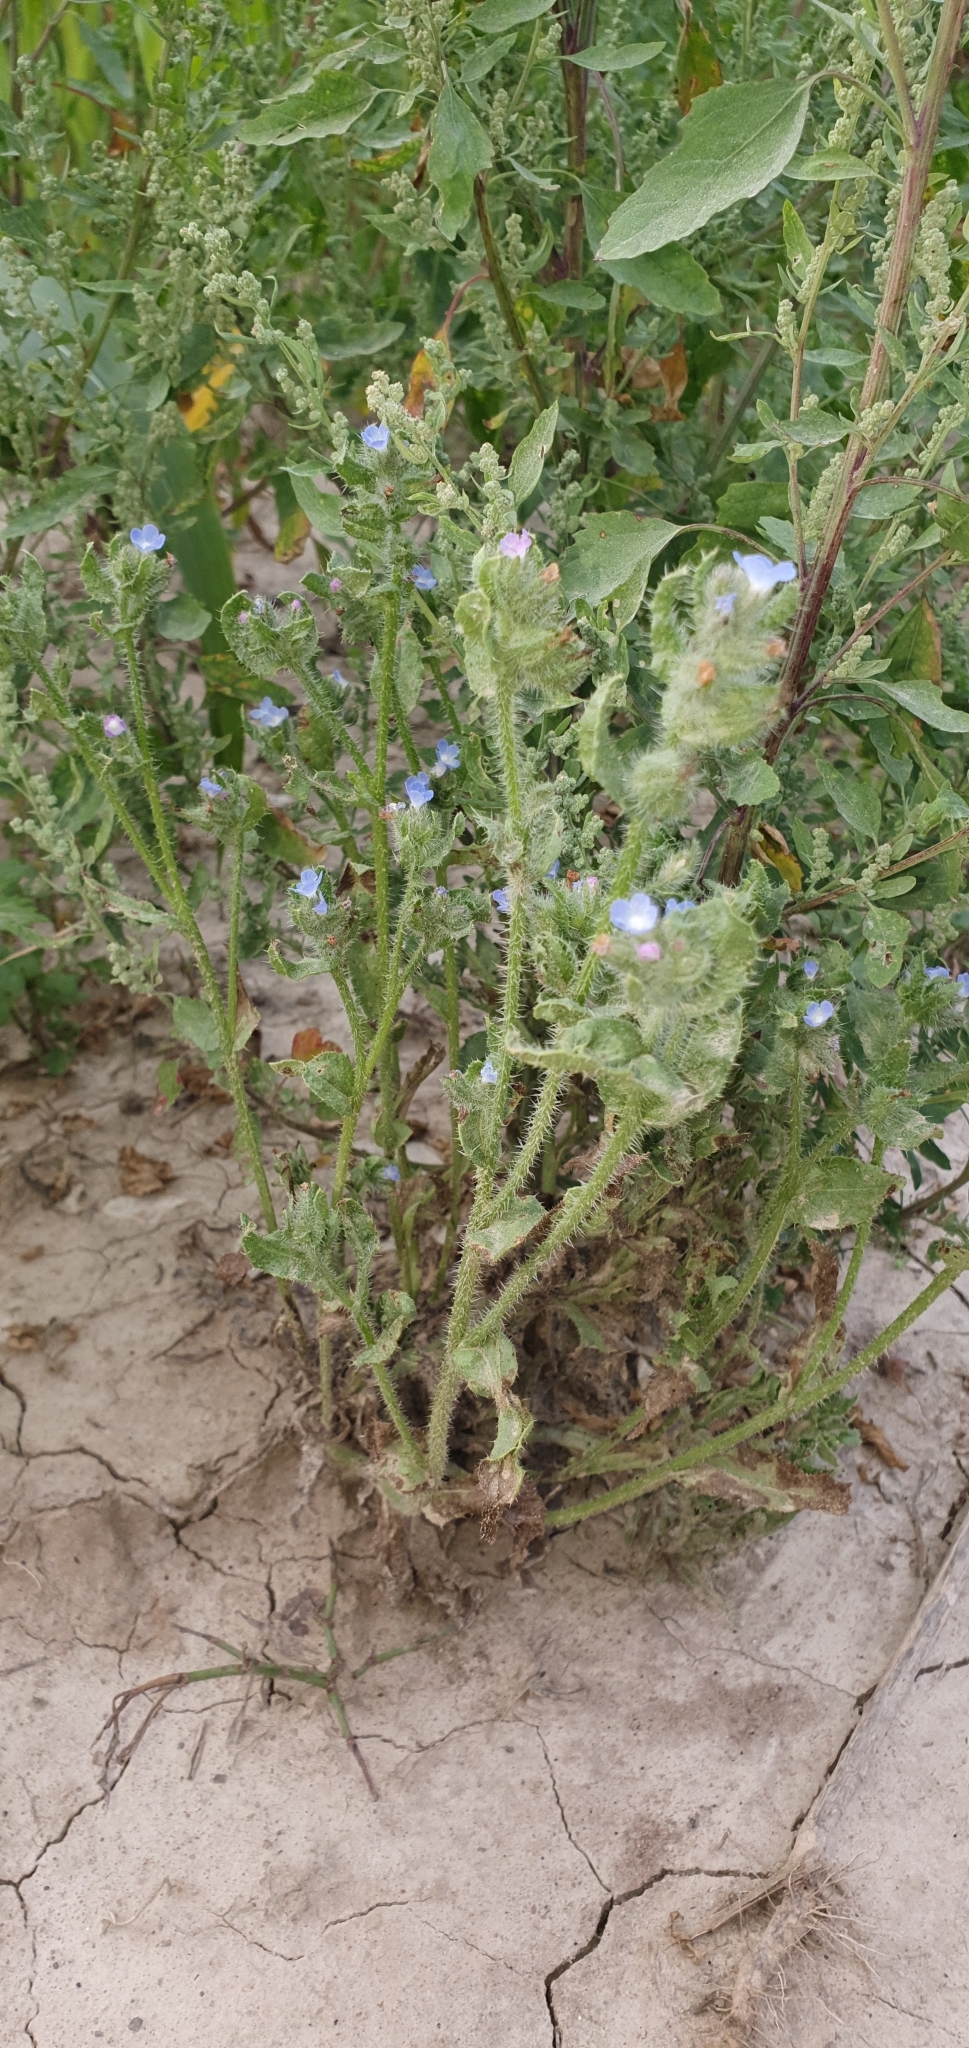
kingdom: Plantae
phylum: Tracheophyta
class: Magnoliopsida
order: Boraginales
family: Boraginaceae
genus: Lycopsis
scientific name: Lycopsis arvensis
